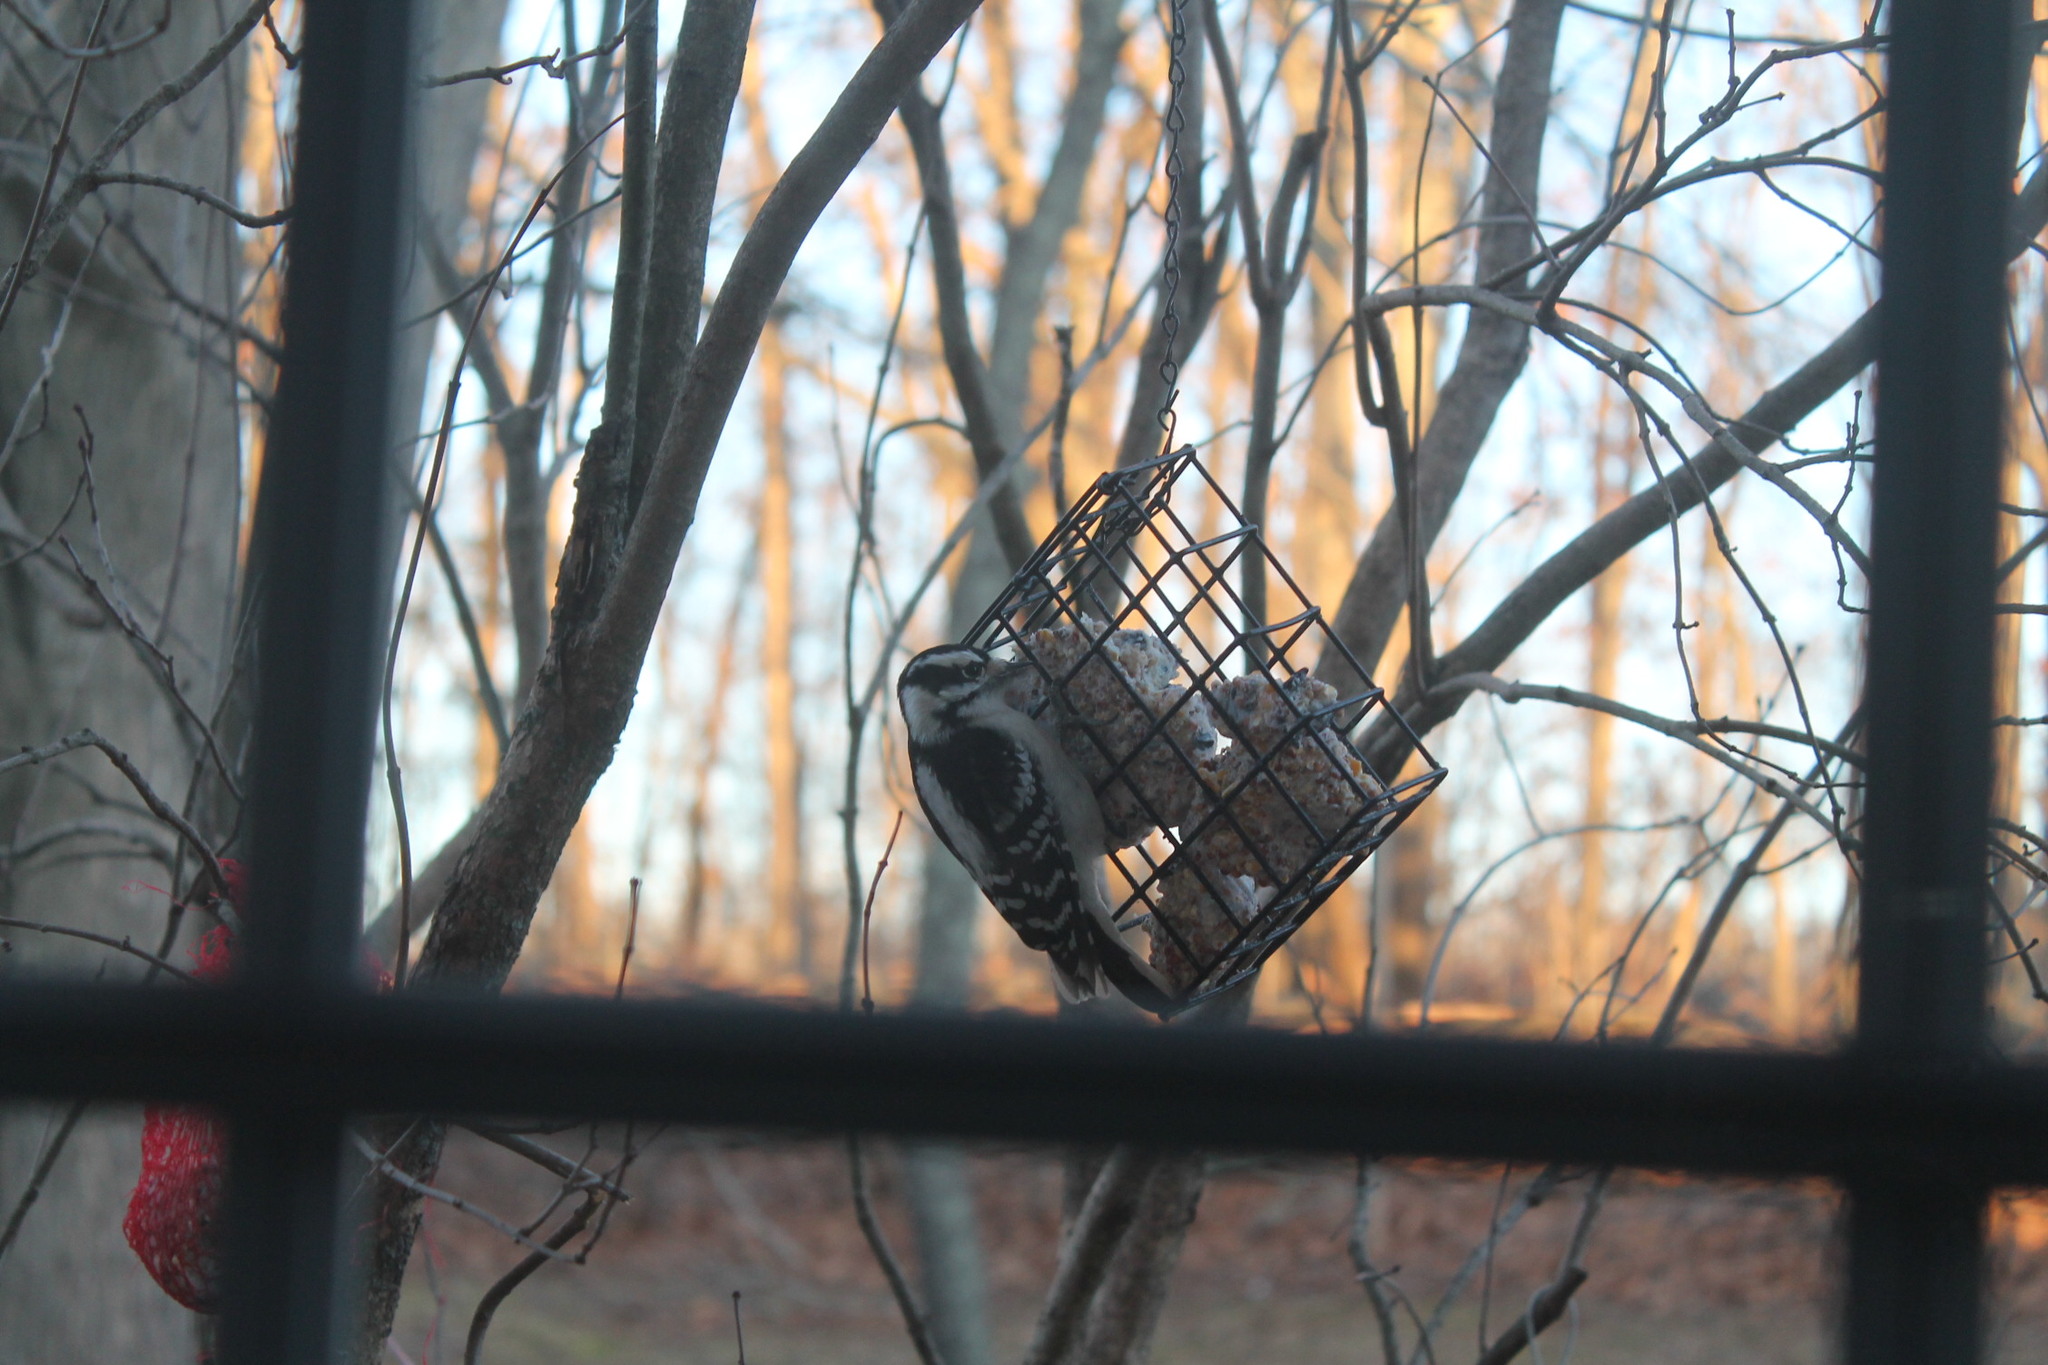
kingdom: Animalia
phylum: Chordata
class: Aves
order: Piciformes
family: Picidae
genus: Dryobates
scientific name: Dryobates pubescens
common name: Downy woodpecker
